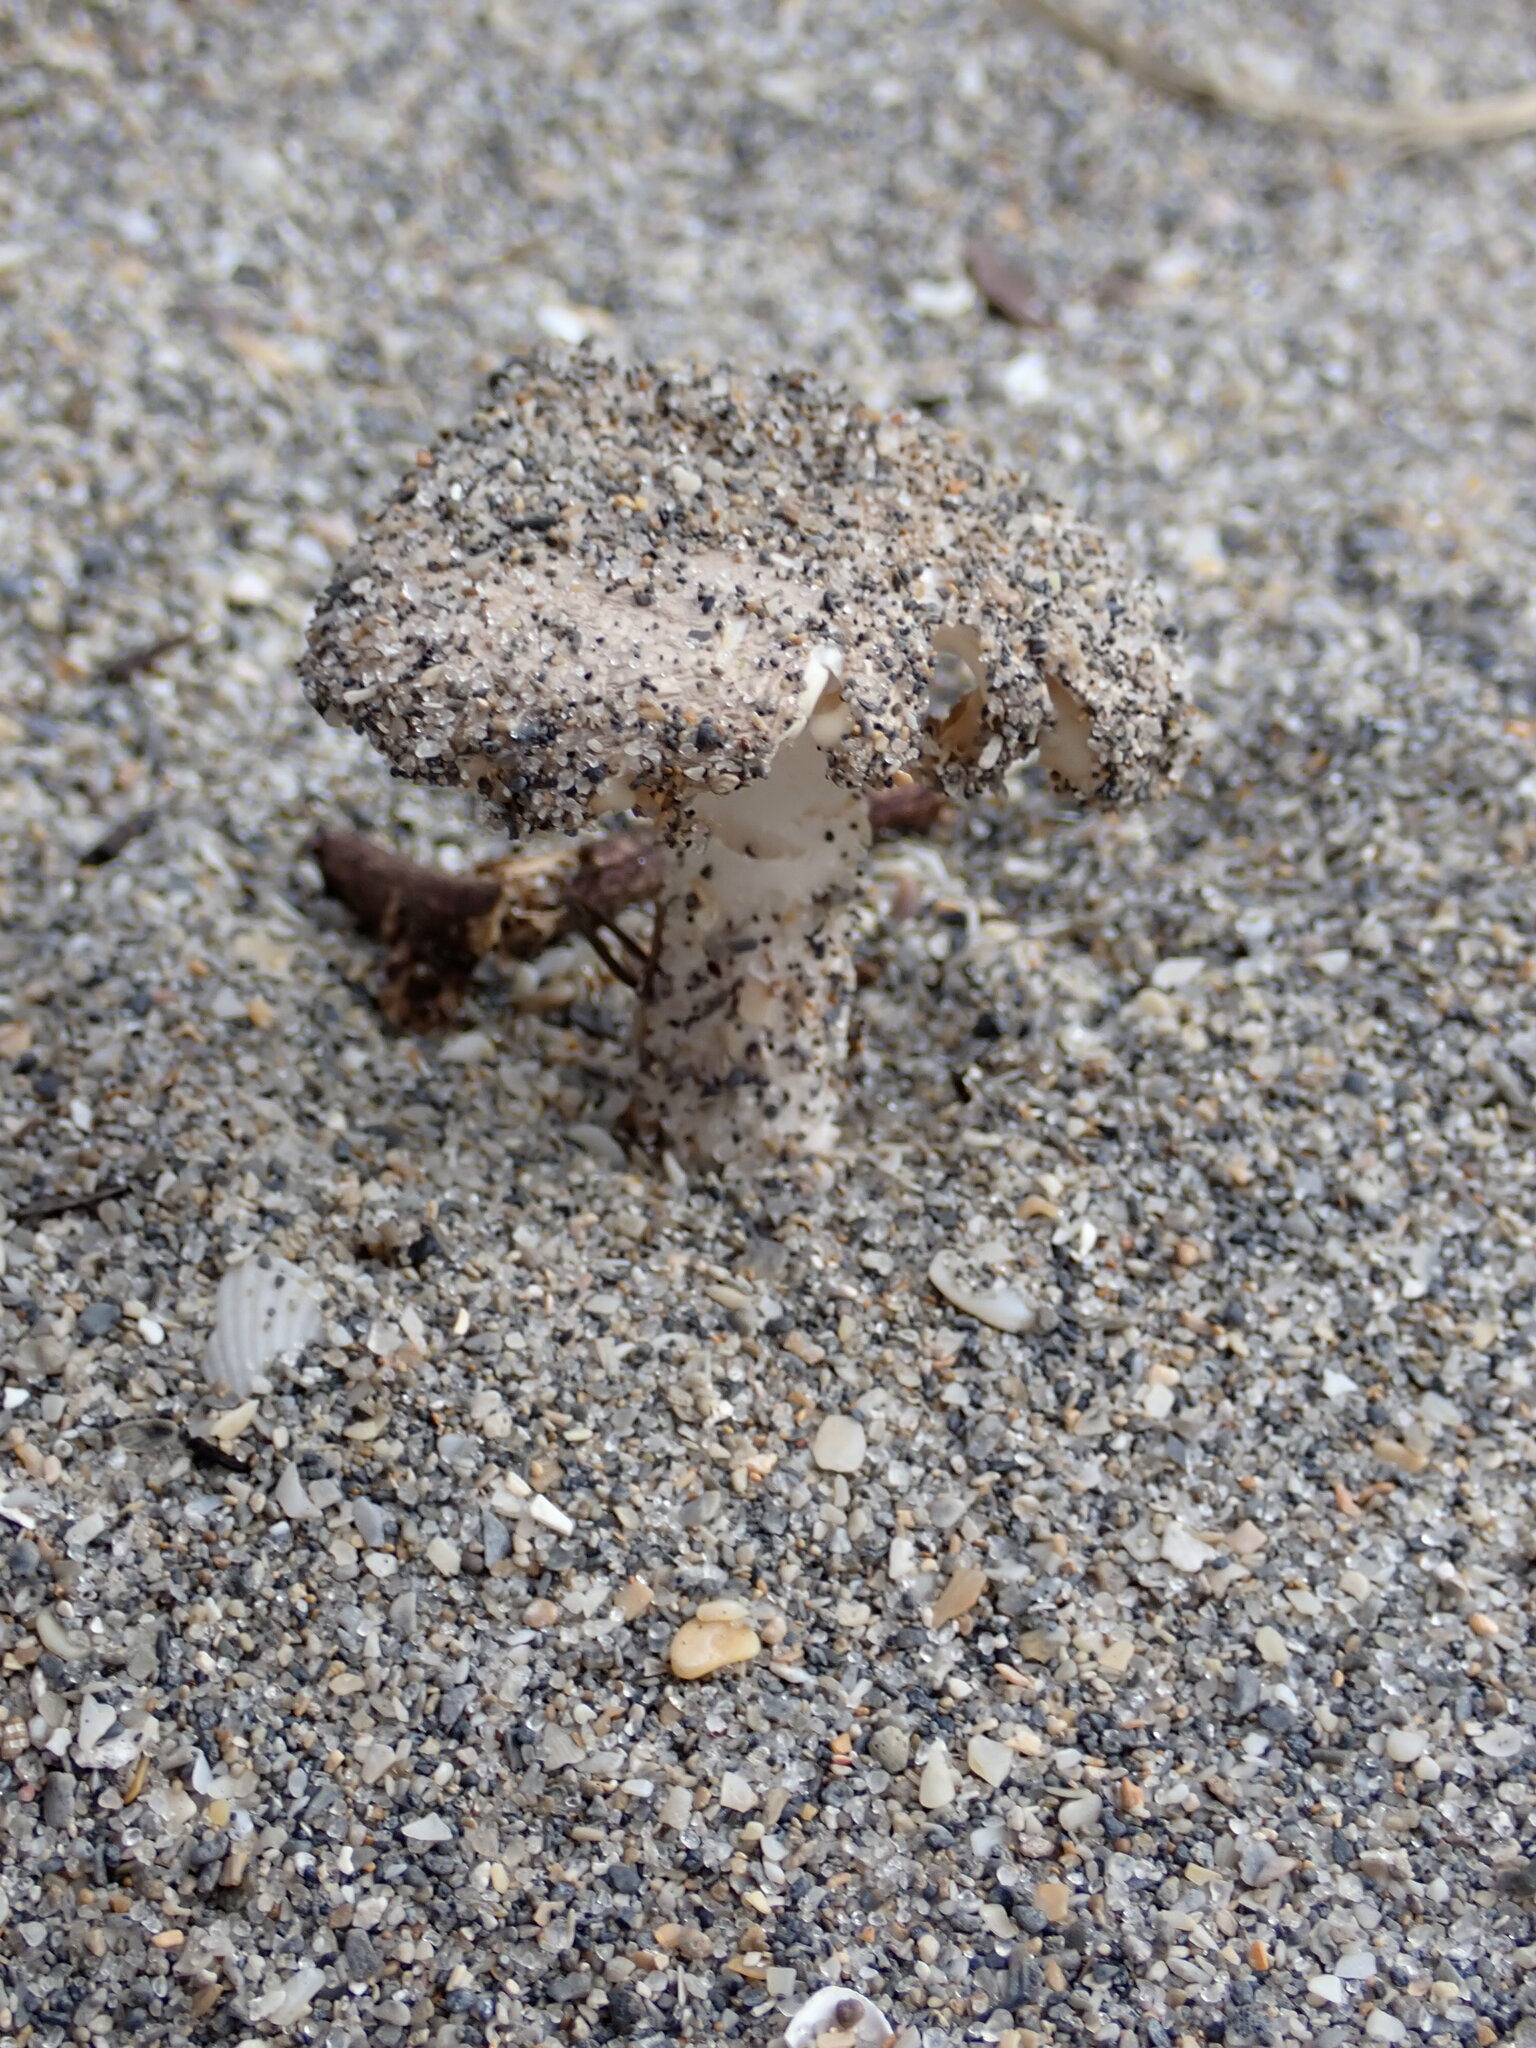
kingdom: Fungi
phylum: Basidiomycota
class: Agaricomycetes
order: Agaricales
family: Amanitaceae
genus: Amanita
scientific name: Amanita dunicola
